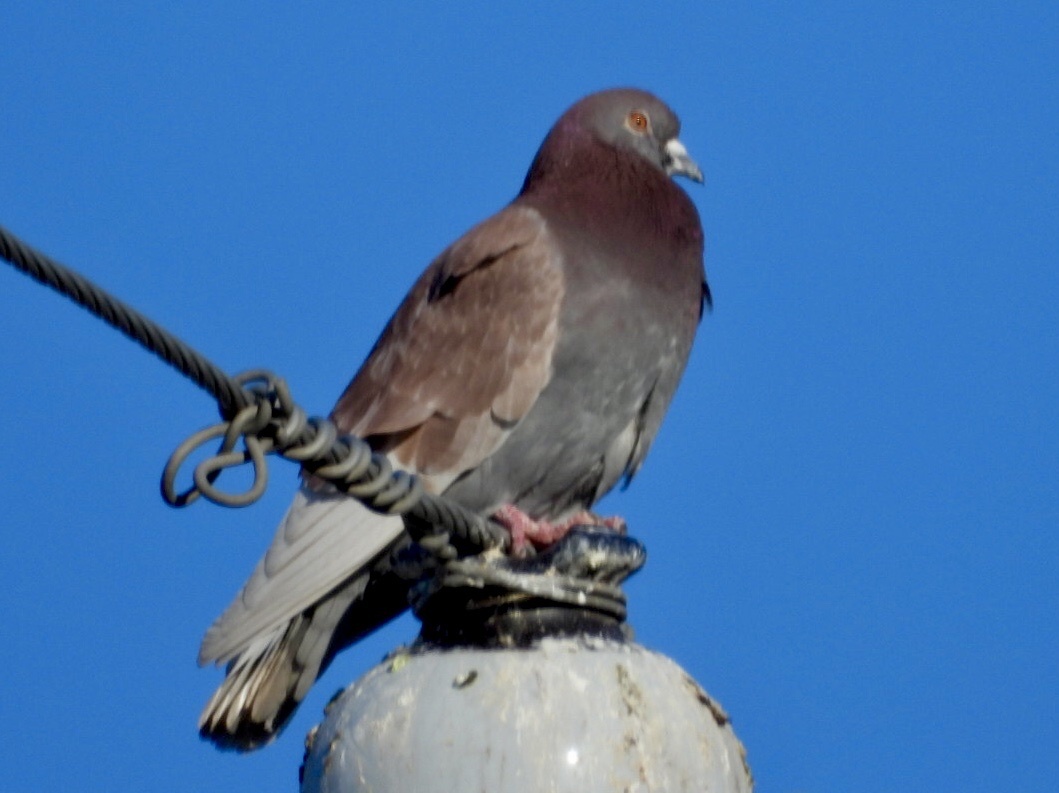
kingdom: Animalia
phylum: Chordata
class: Aves
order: Columbiformes
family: Columbidae
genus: Columba
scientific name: Columba livia
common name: Rock pigeon
